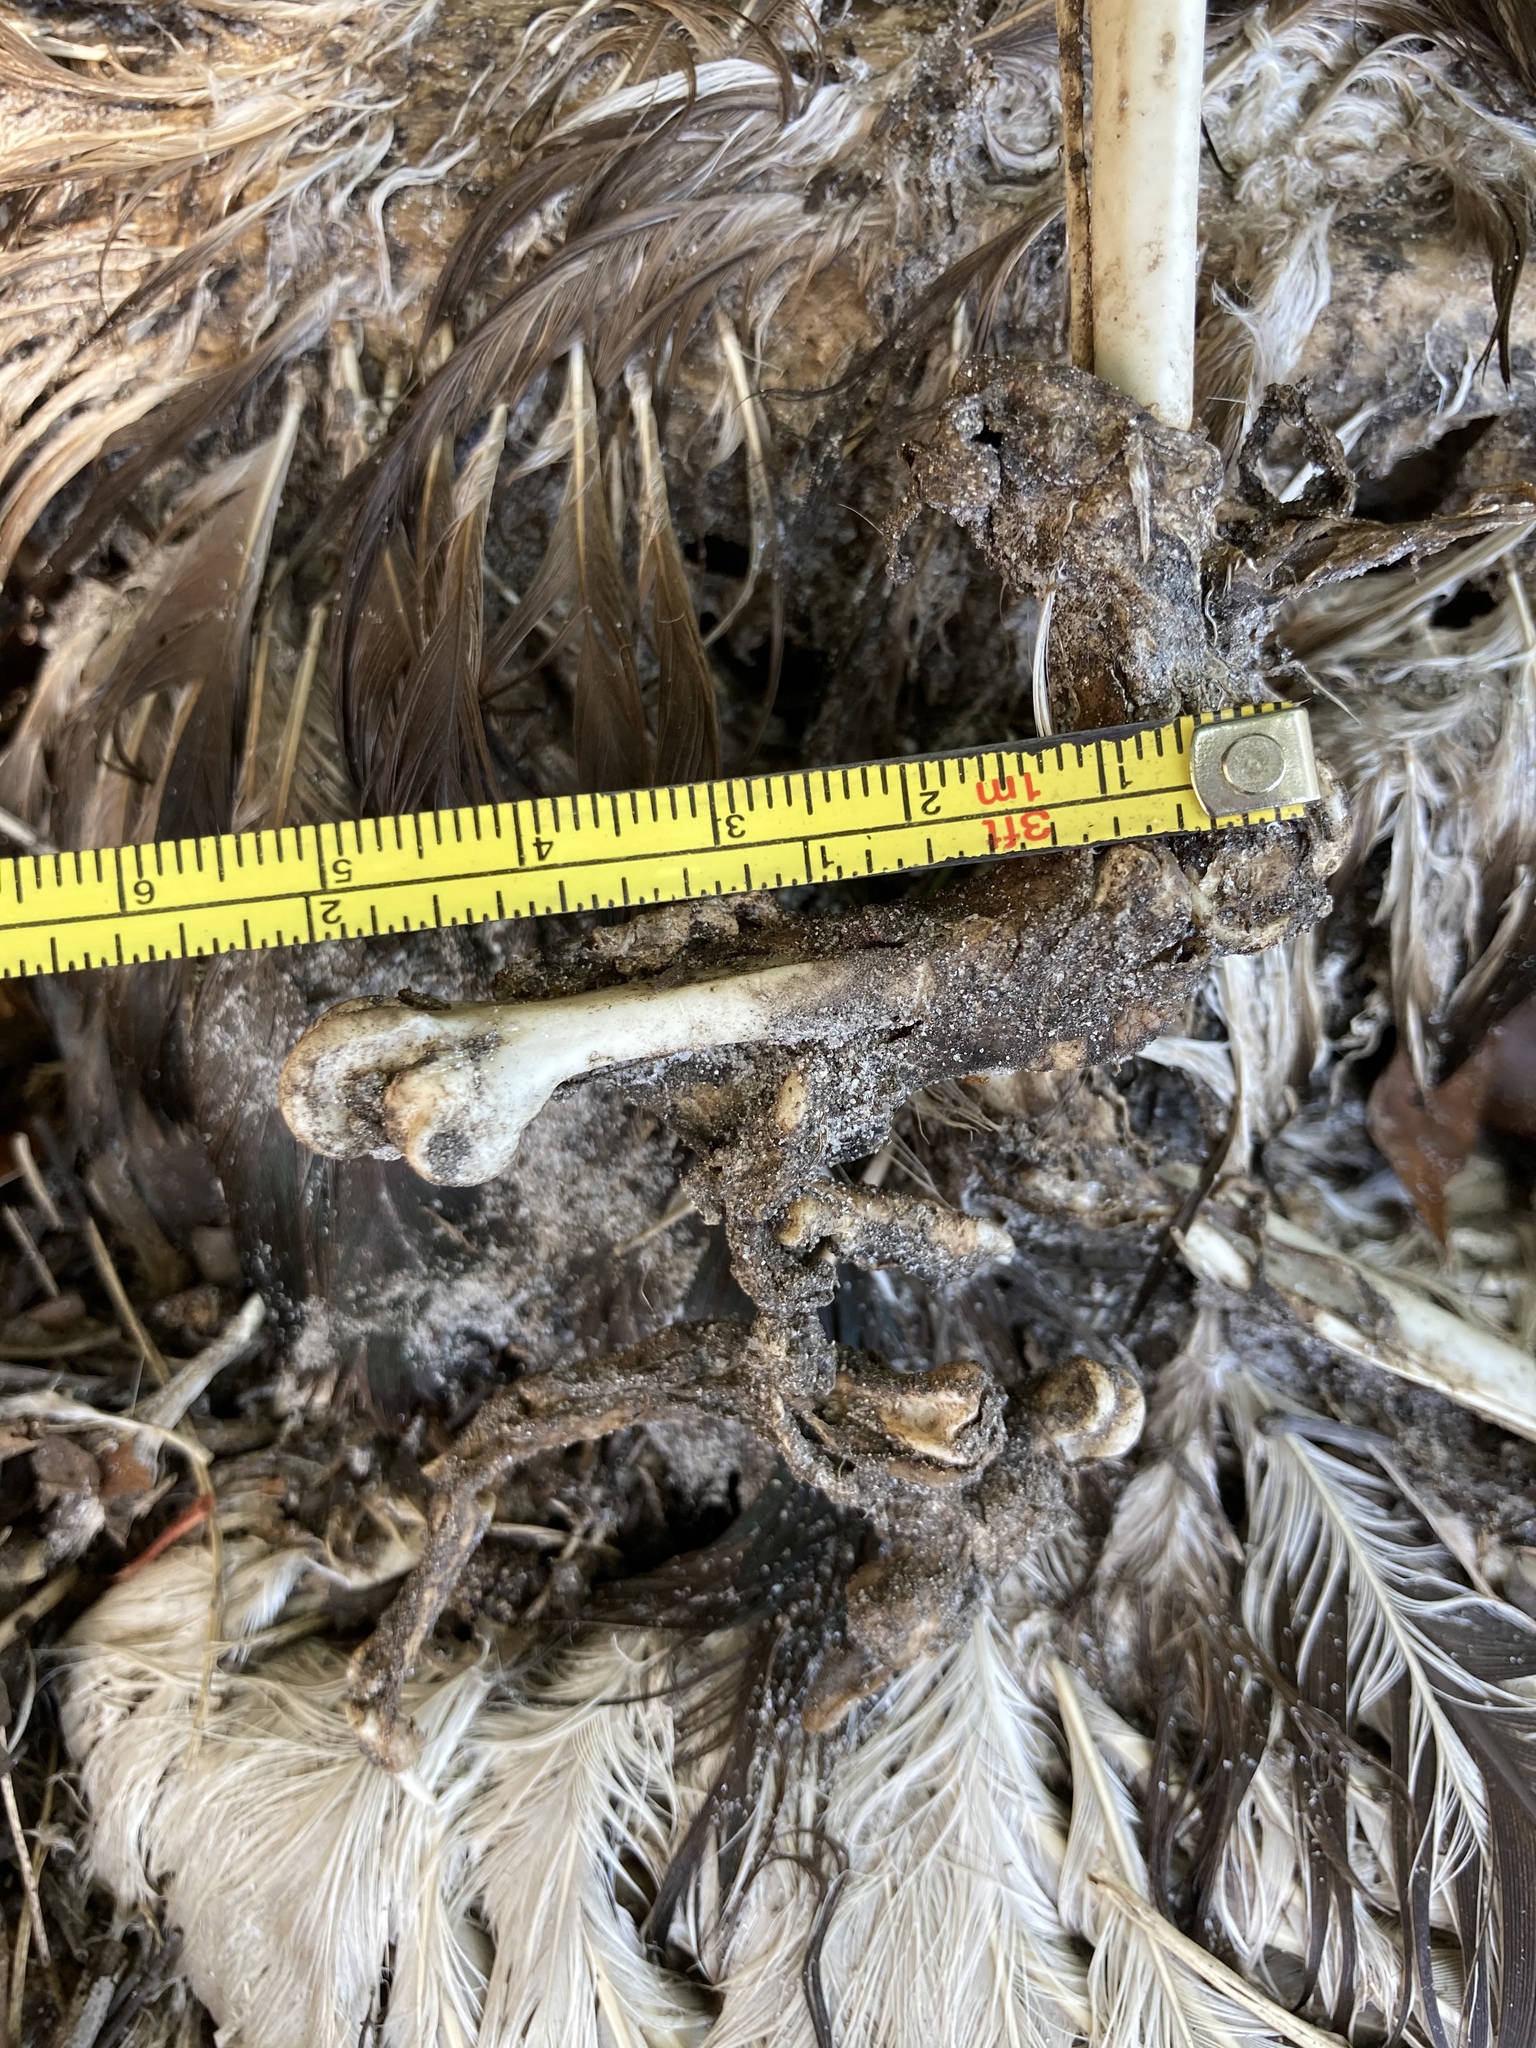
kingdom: Animalia
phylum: Chordata
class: Aves
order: Anseriformes
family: Anatidae
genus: Cairina
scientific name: Cairina moschata
